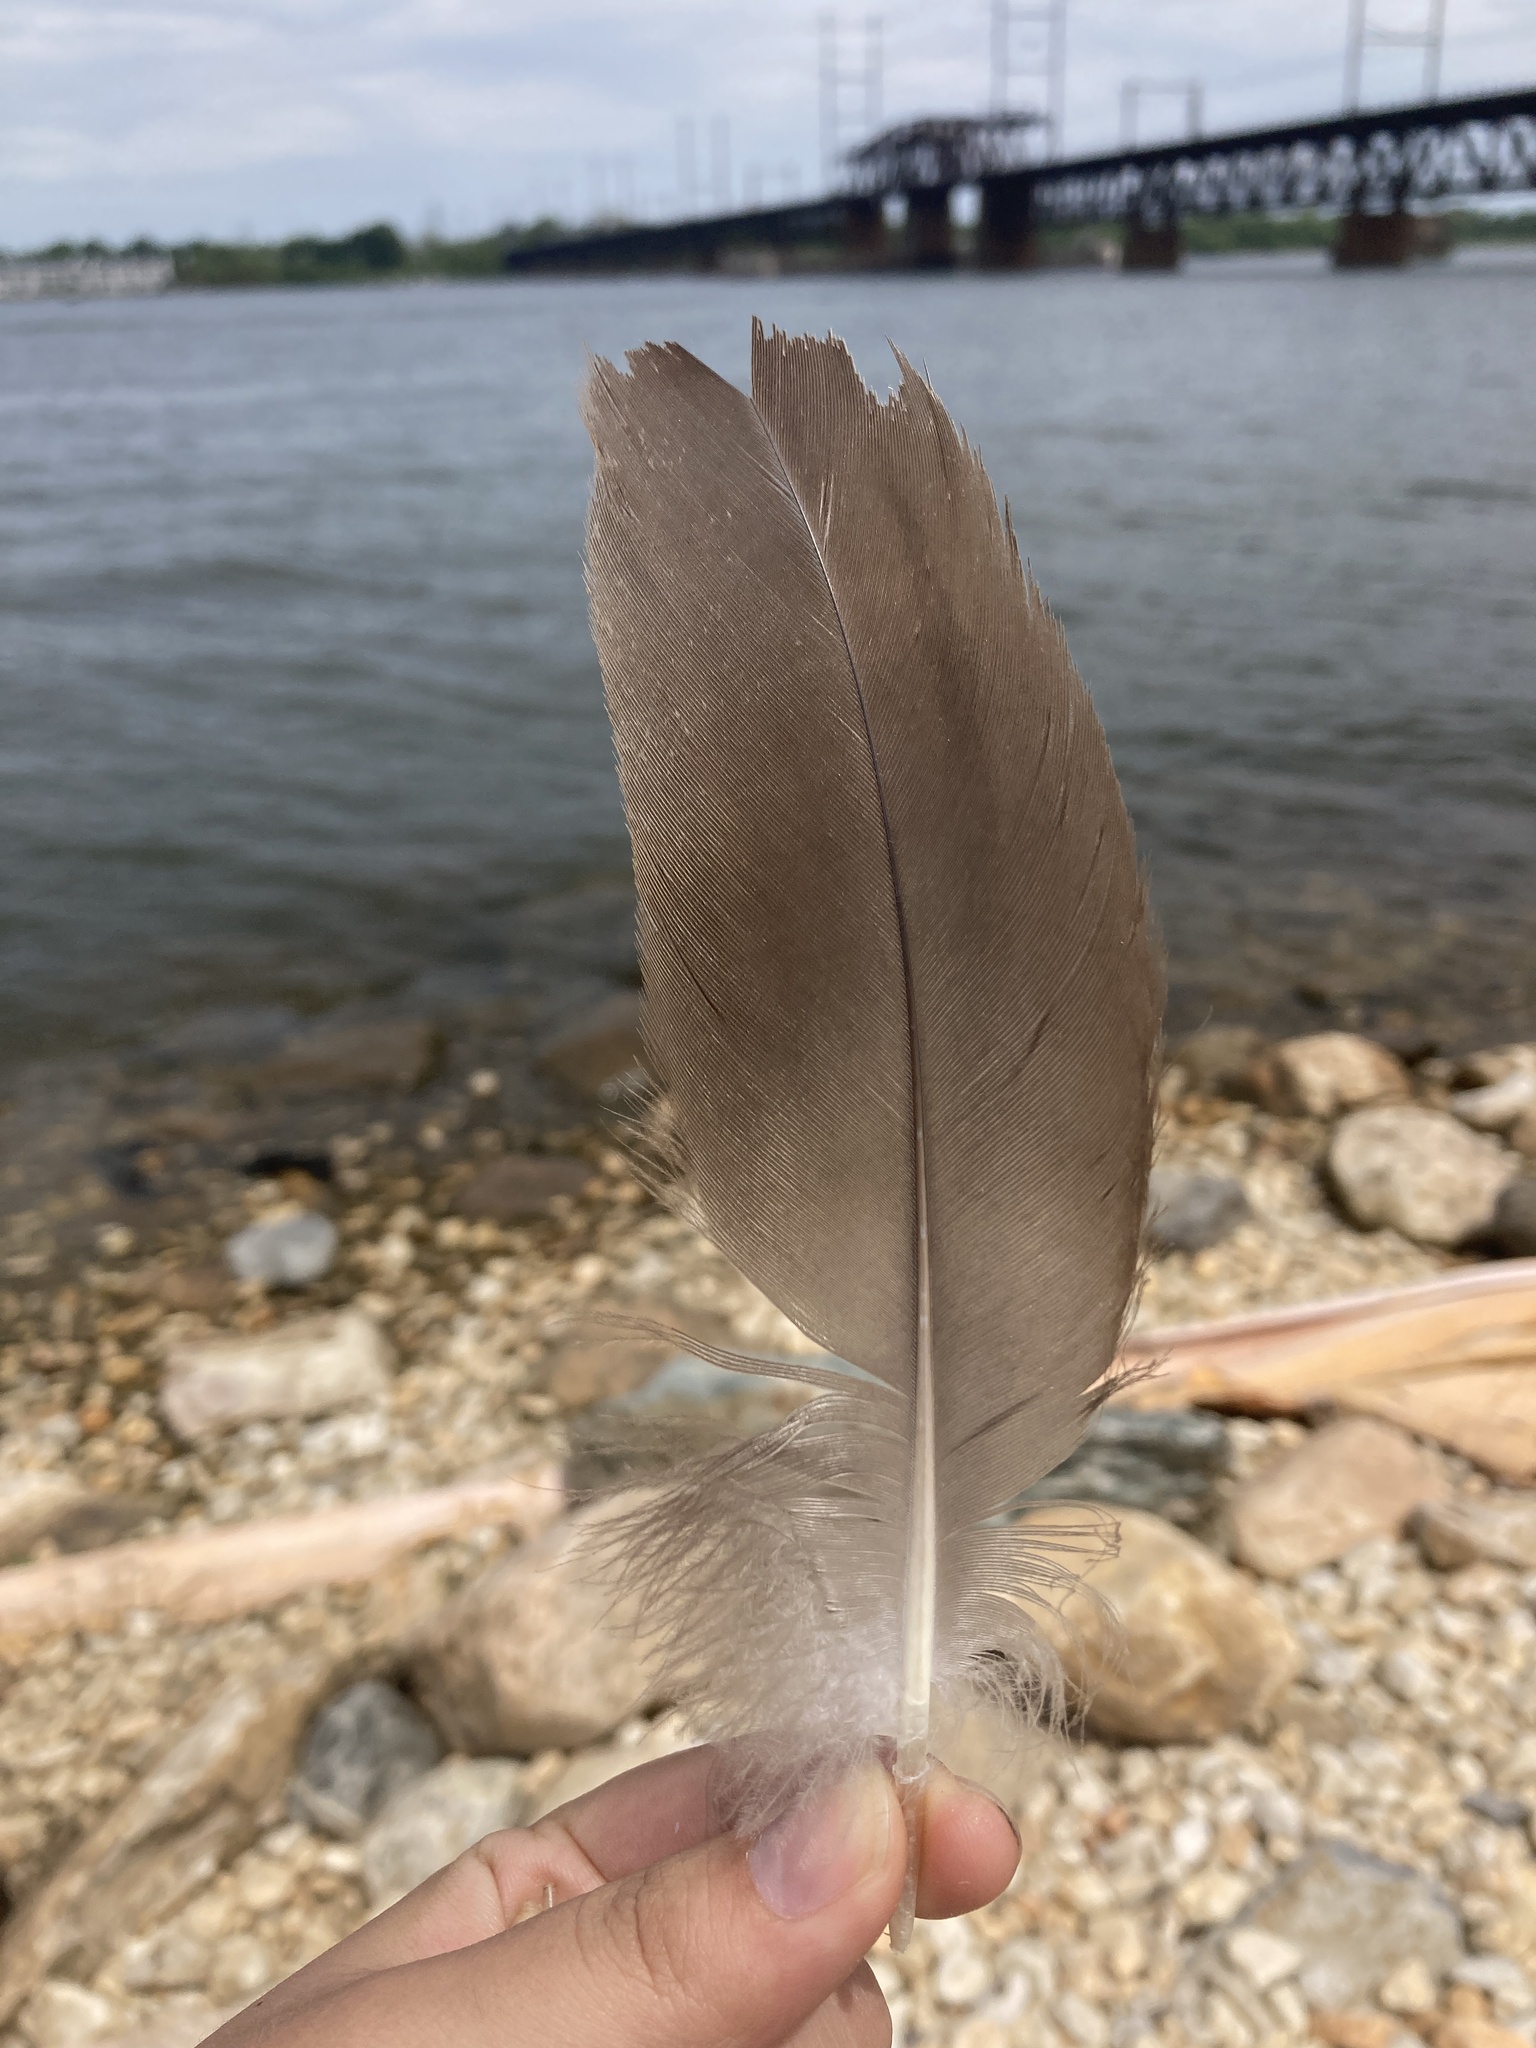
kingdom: Animalia
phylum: Chordata
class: Aves
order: Anseriformes
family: Anatidae
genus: Branta
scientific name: Branta canadensis
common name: Canada goose
